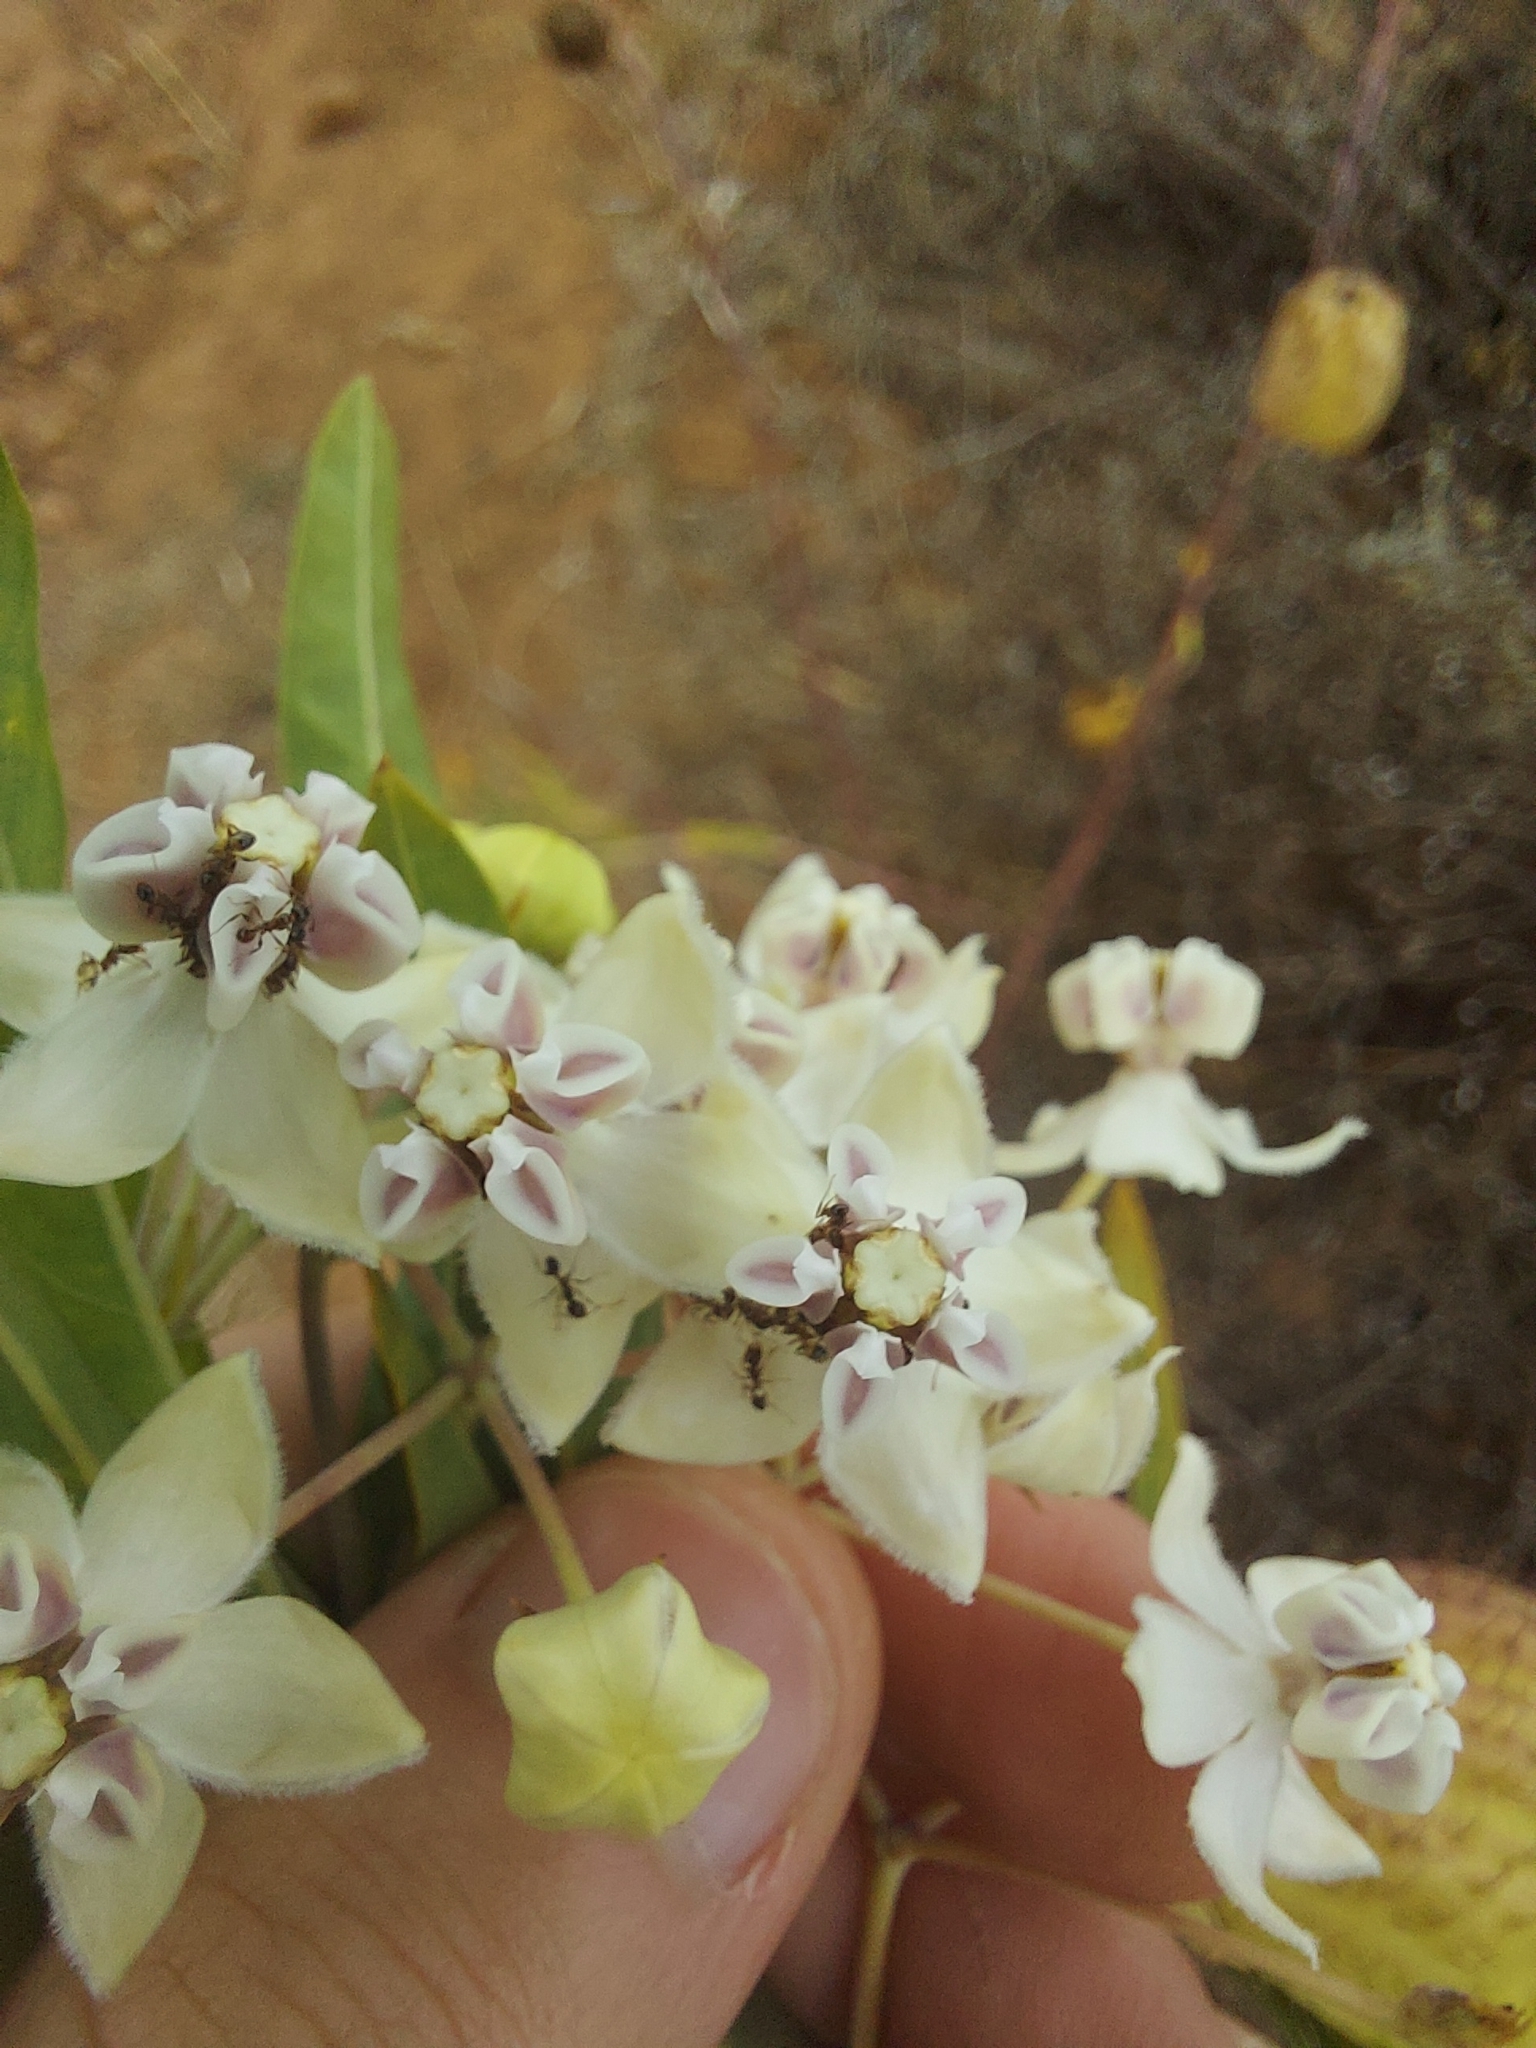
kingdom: Plantae
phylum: Tracheophyta
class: Magnoliopsida
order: Gentianales
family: Apocynaceae
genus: Gomphocarpus
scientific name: Gomphocarpus physocarpus
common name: Balloon cotton bush
